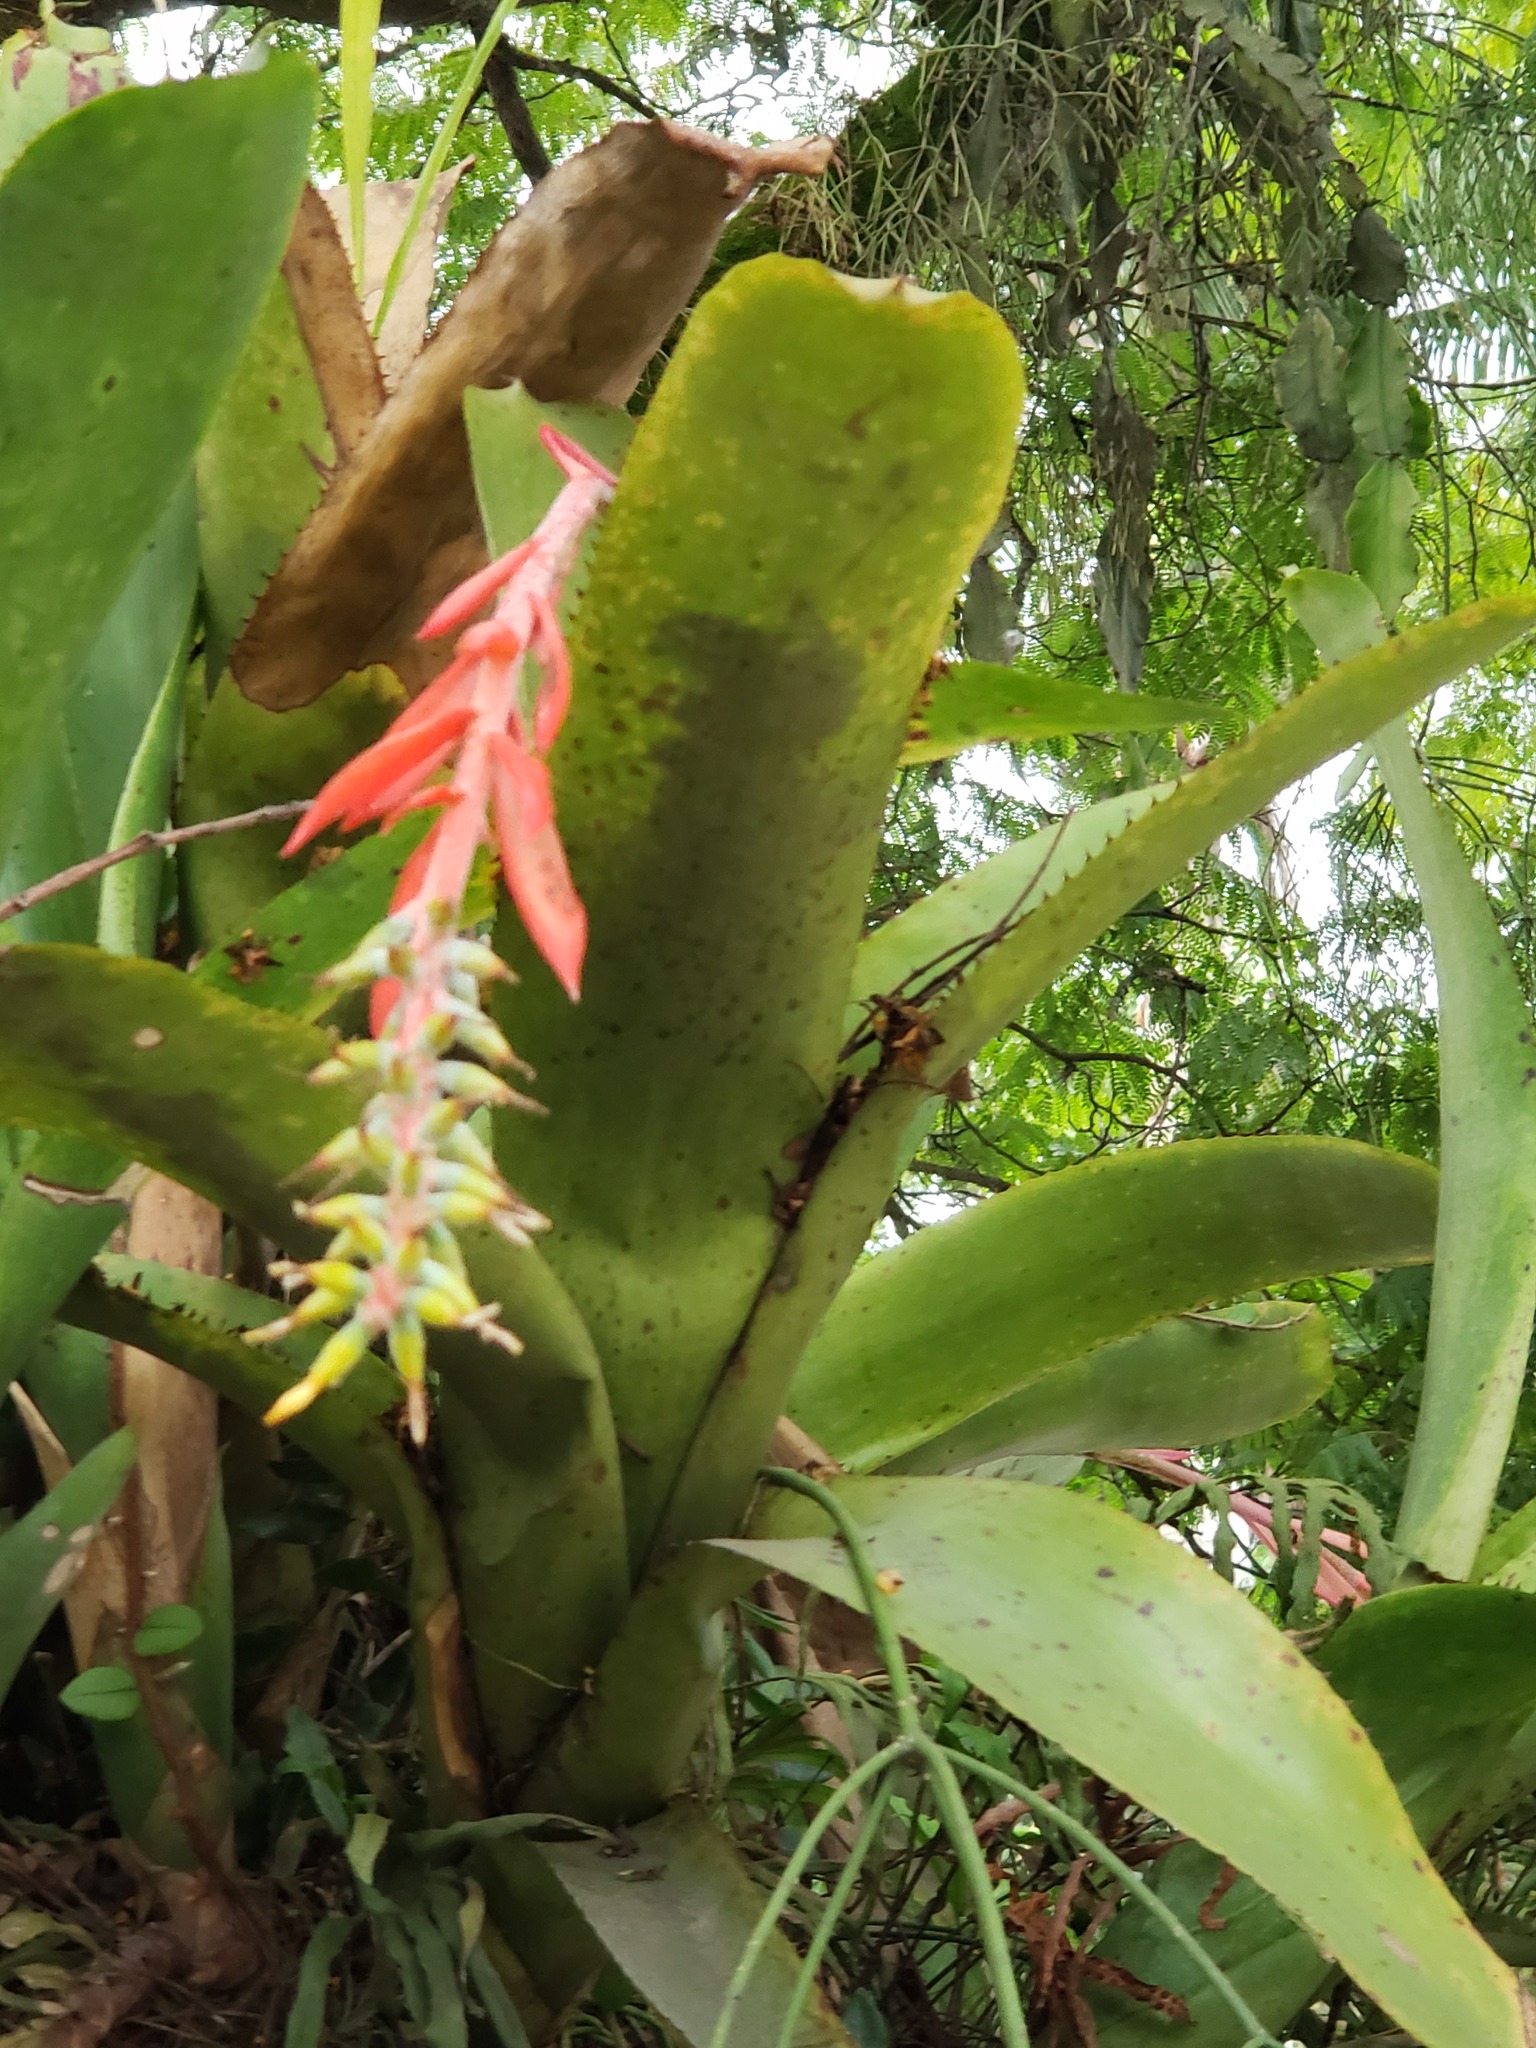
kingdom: Plantae
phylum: Tracheophyta
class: Liliopsida
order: Poales
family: Bromeliaceae
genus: Aechmea
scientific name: Aechmea nudicaulis
